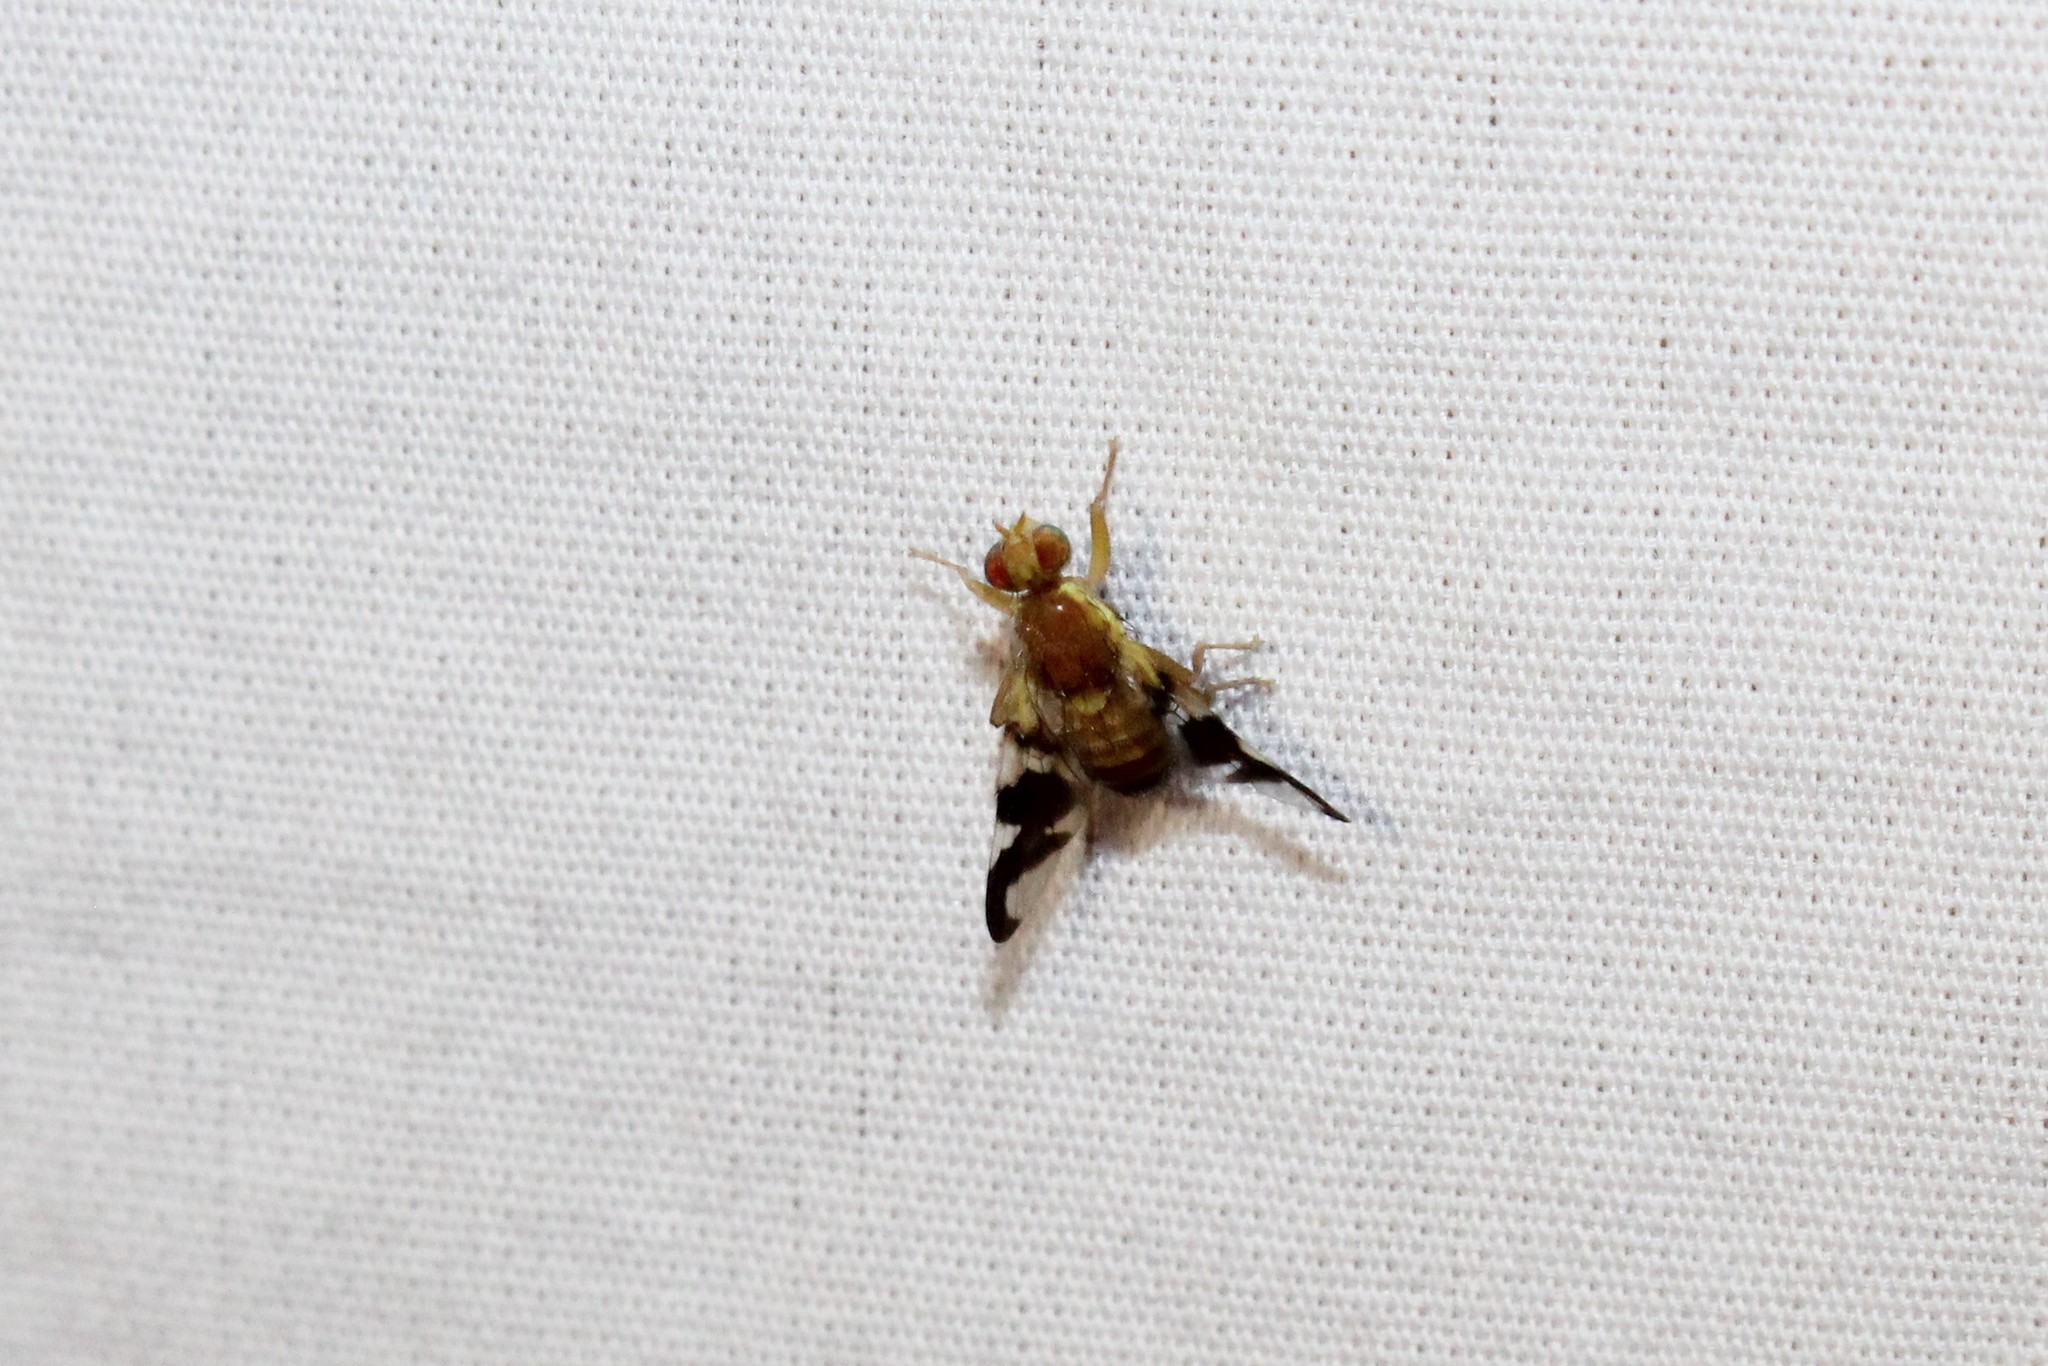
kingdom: Animalia
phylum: Arthropoda
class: Insecta
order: Diptera
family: Tephritidae
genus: Rhagoletis
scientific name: Rhagoletis suavis
